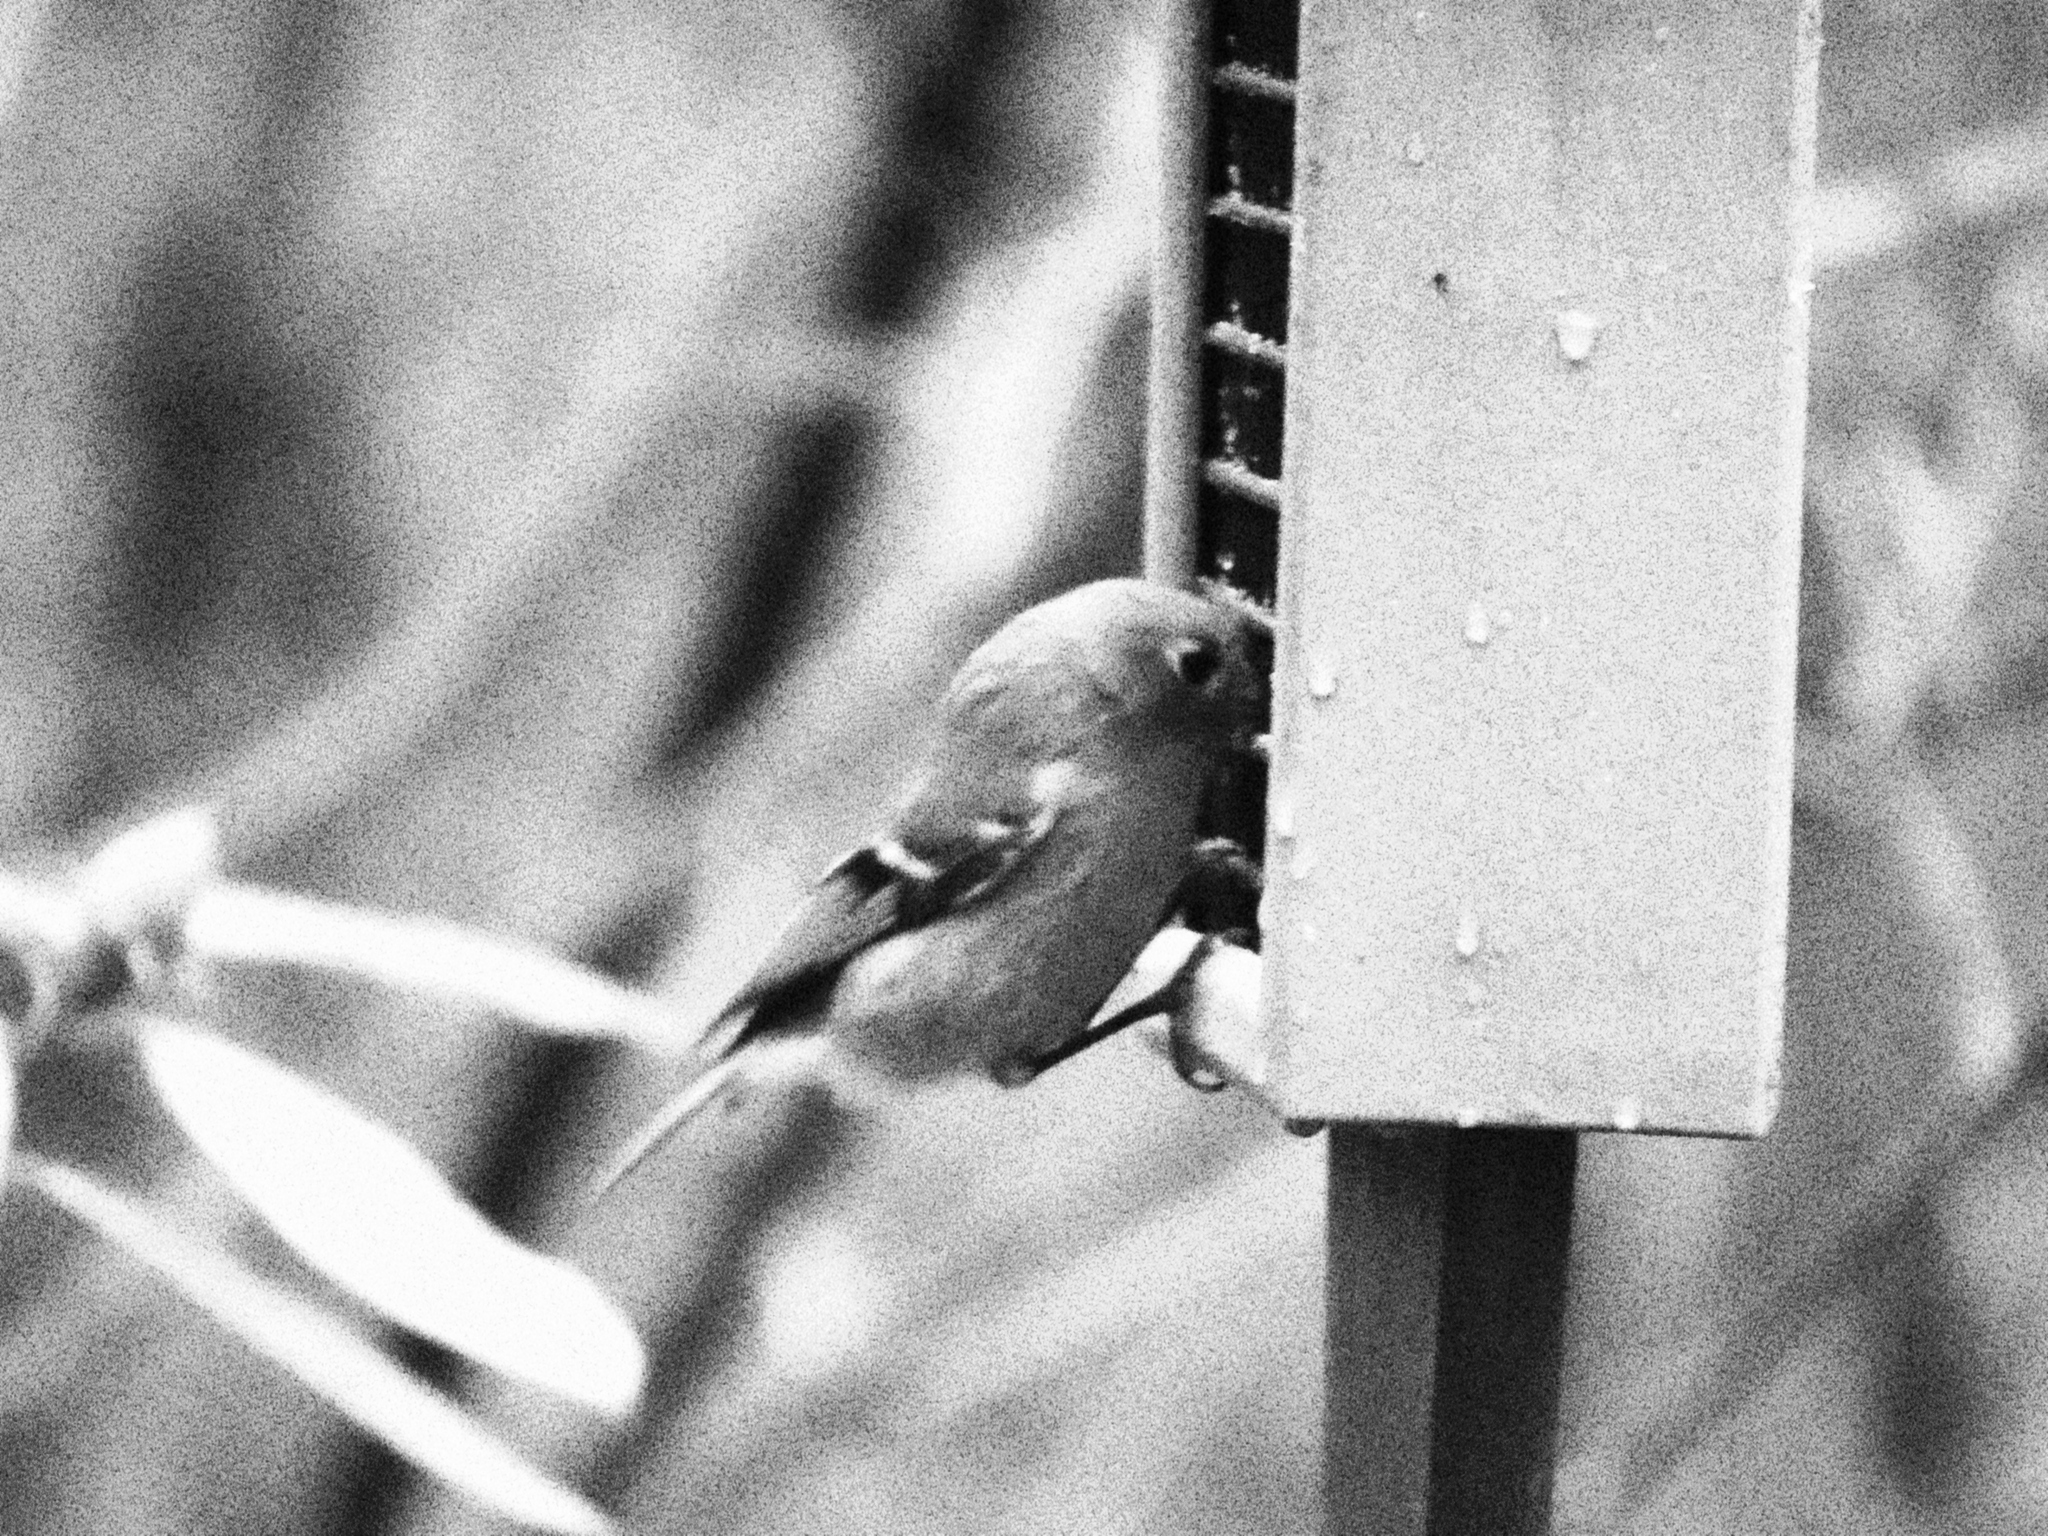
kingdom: Animalia
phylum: Chordata
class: Aves
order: Passeriformes
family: Regulidae
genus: Regulus
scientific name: Regulus calendula
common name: Ruby-crowned kinglet
